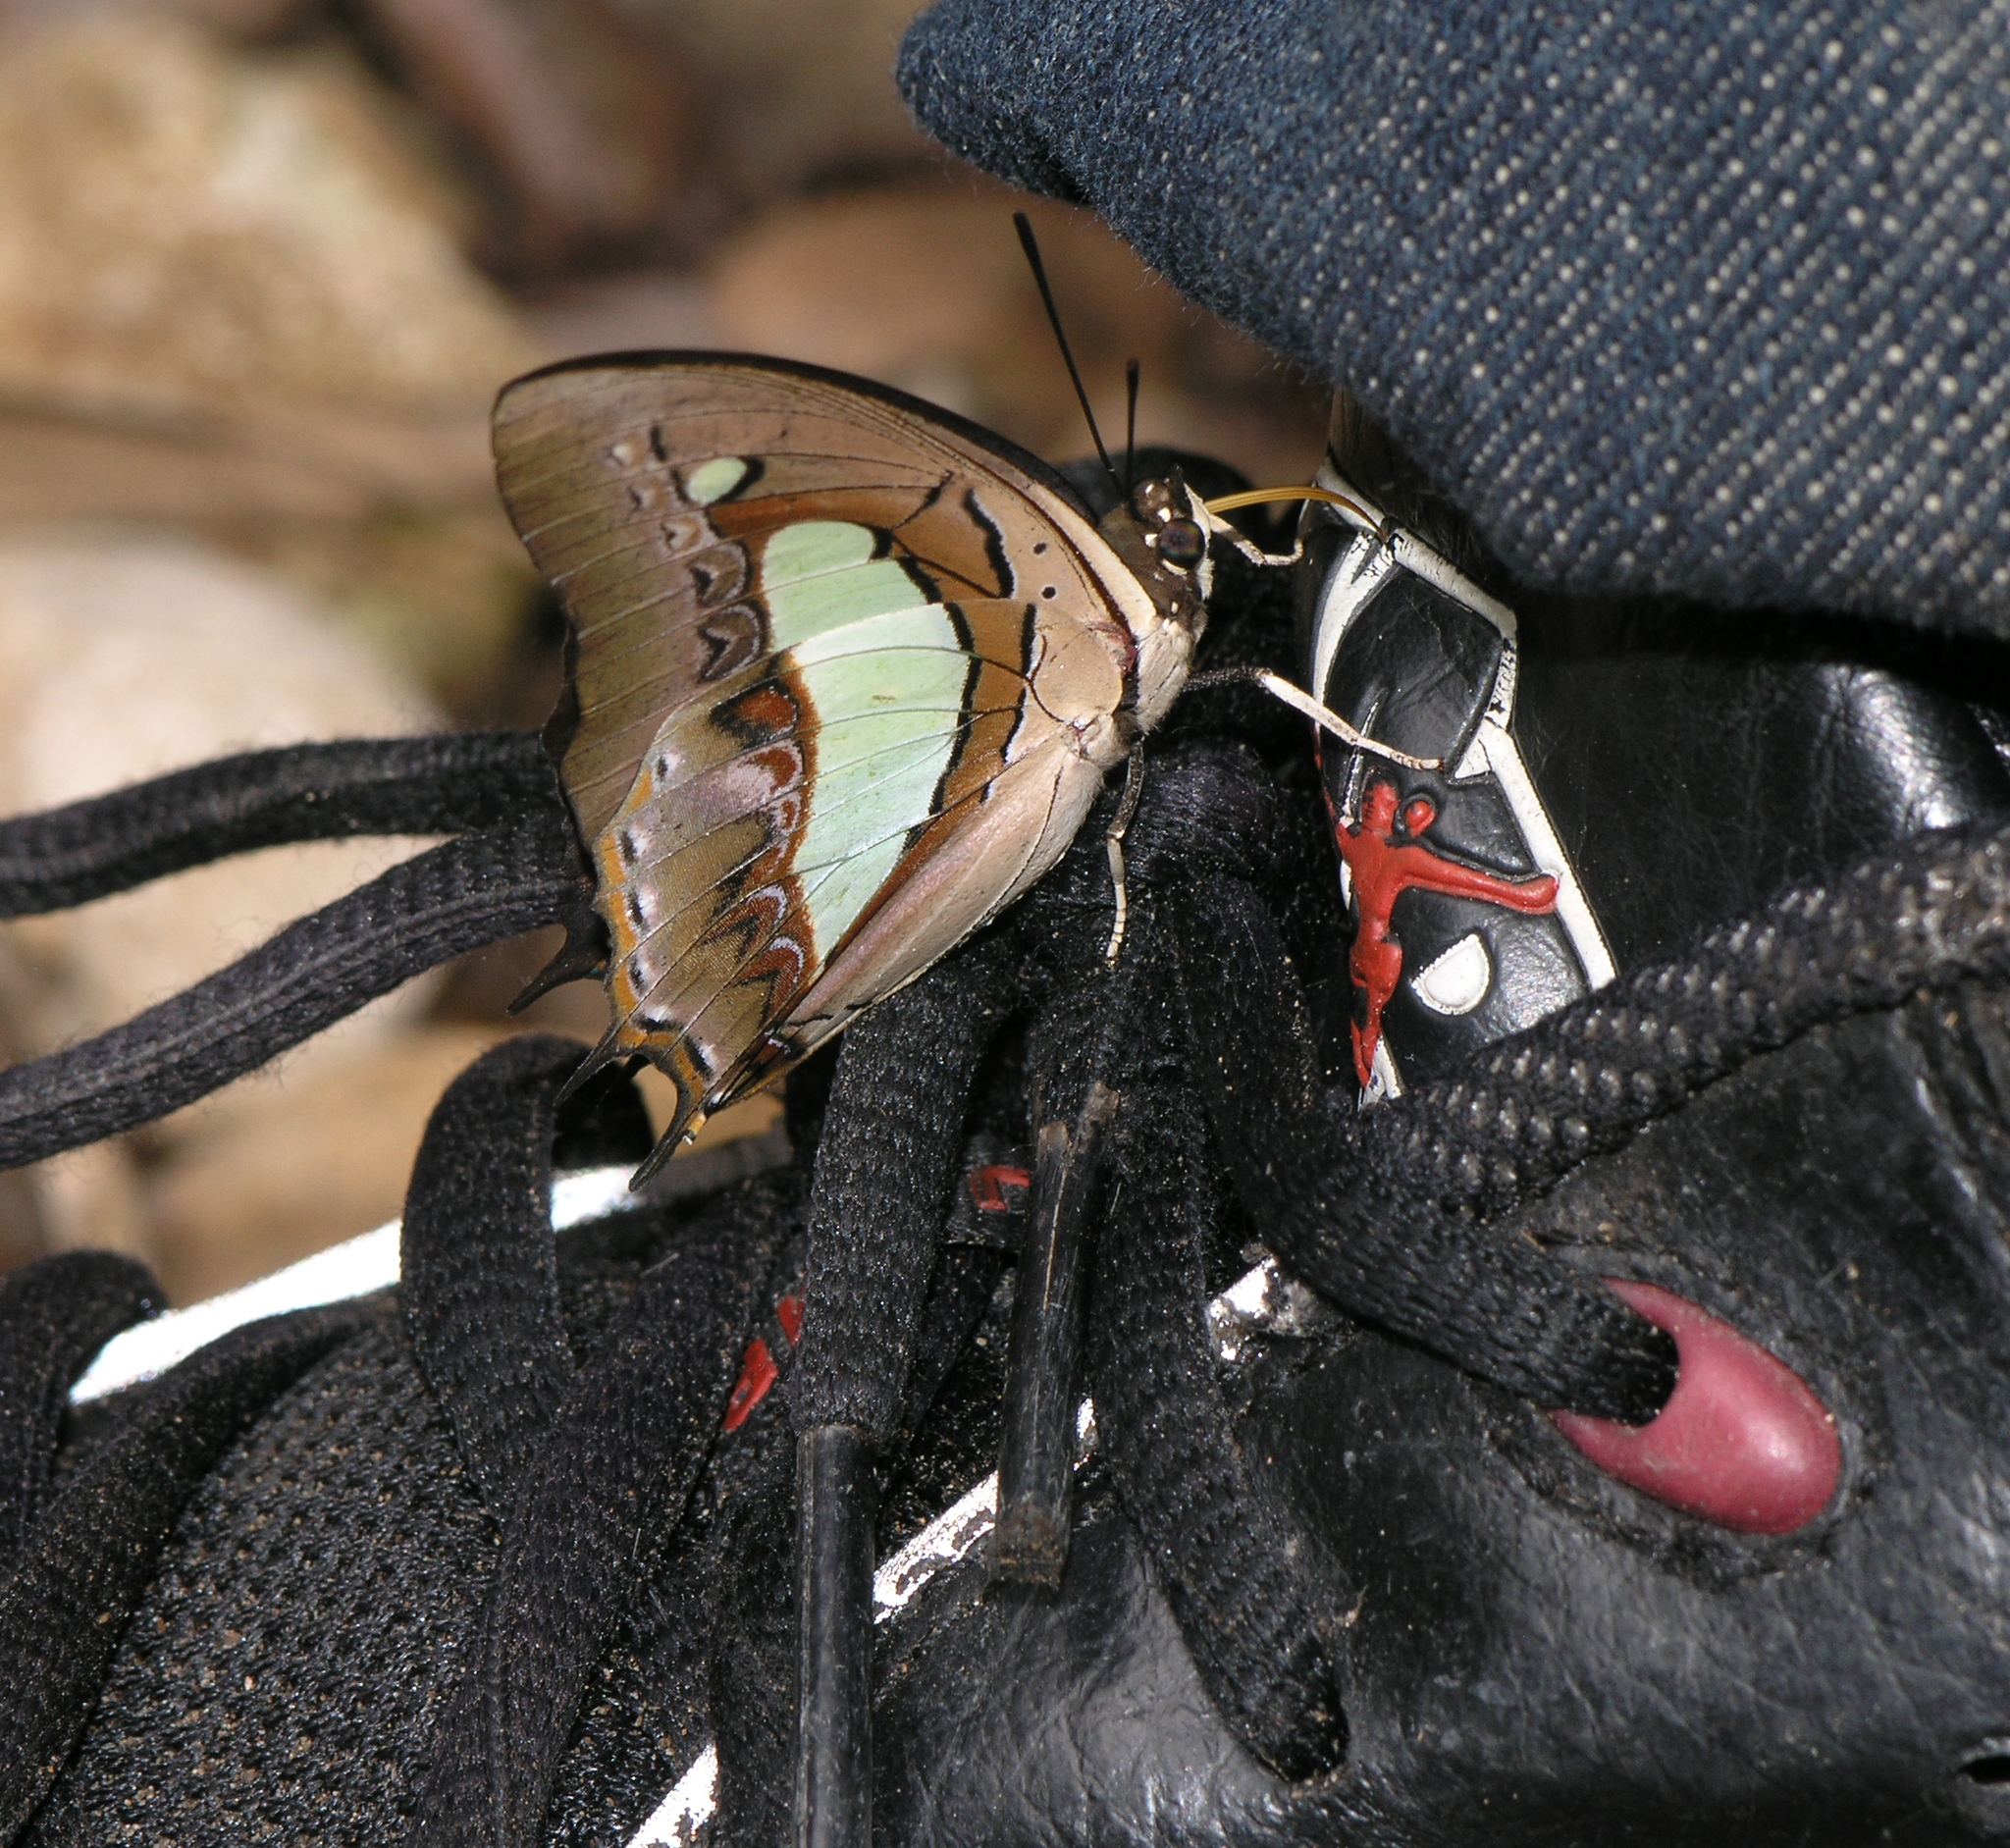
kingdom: Animalia
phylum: Arthropoda
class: Insecta
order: Lepidoptera
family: Nymphalidae
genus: Polyura
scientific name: Polyura athamas
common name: Common nawab
